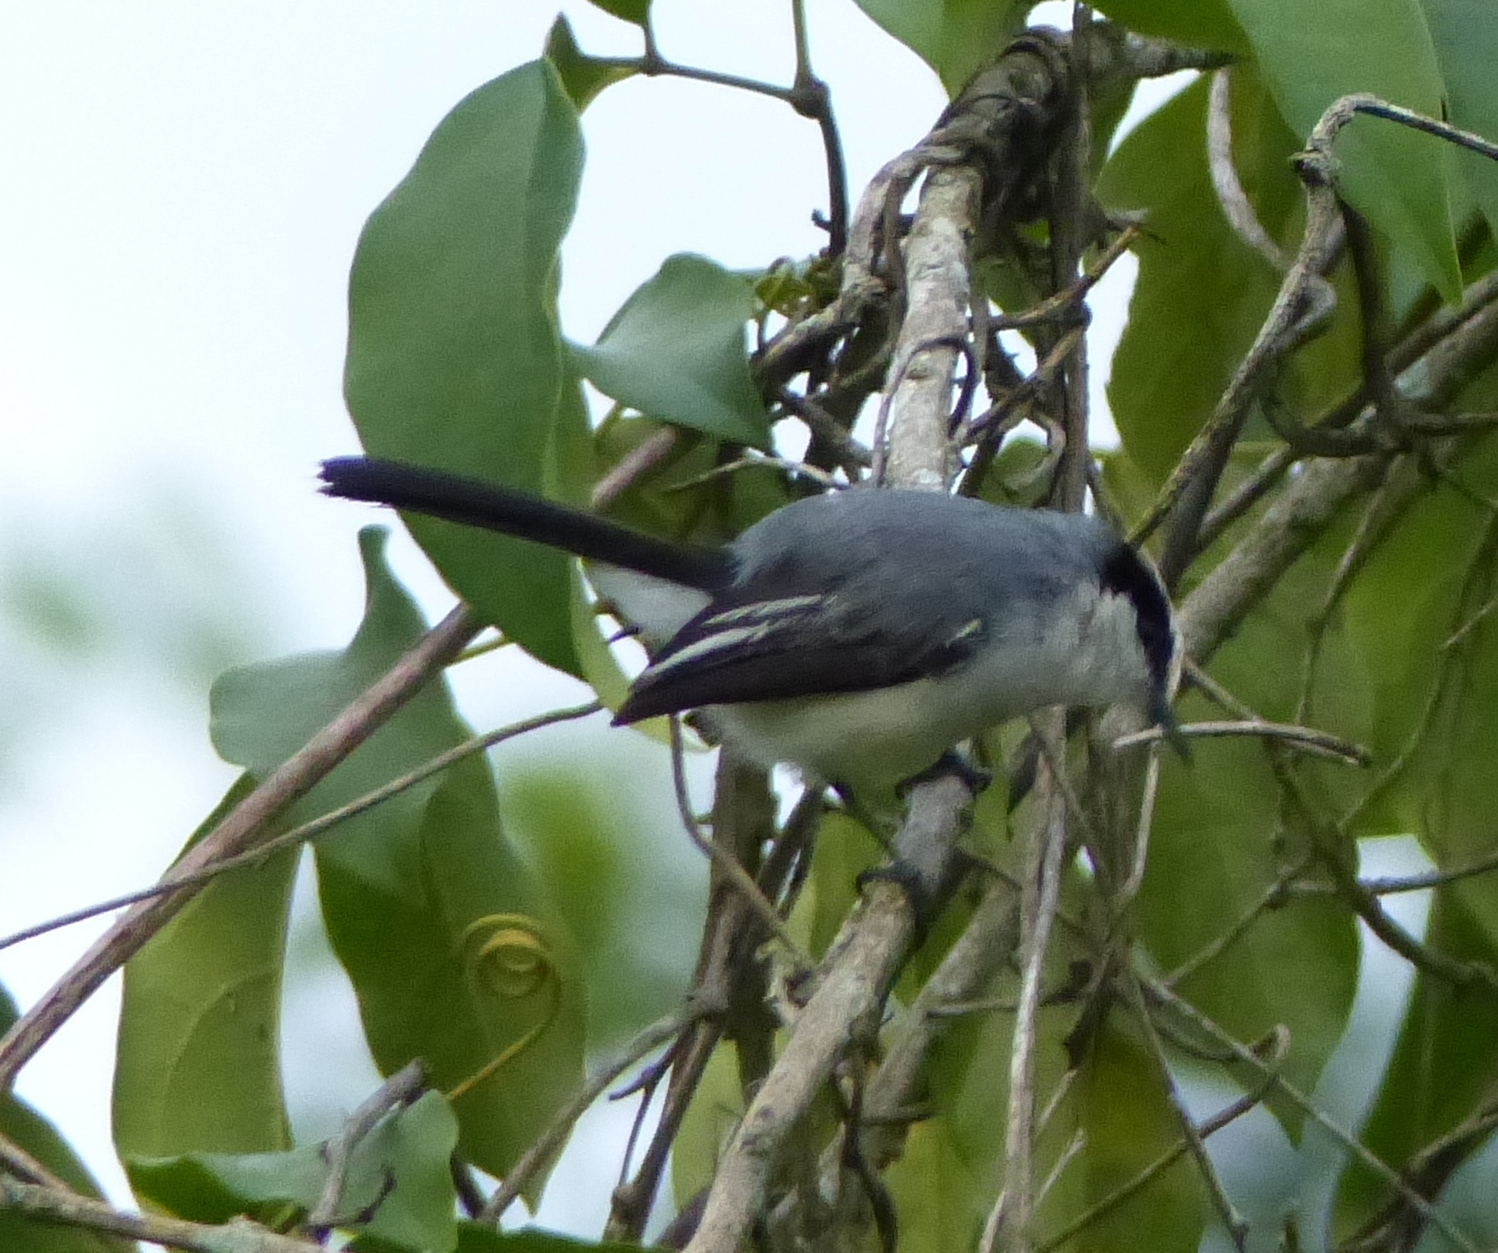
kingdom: Animalia
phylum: Chordata
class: Aves
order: Passeriformes
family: Polioptilidae
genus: Polioptila
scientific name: Polioptila plumbea
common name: Tropical gnatcatcher
